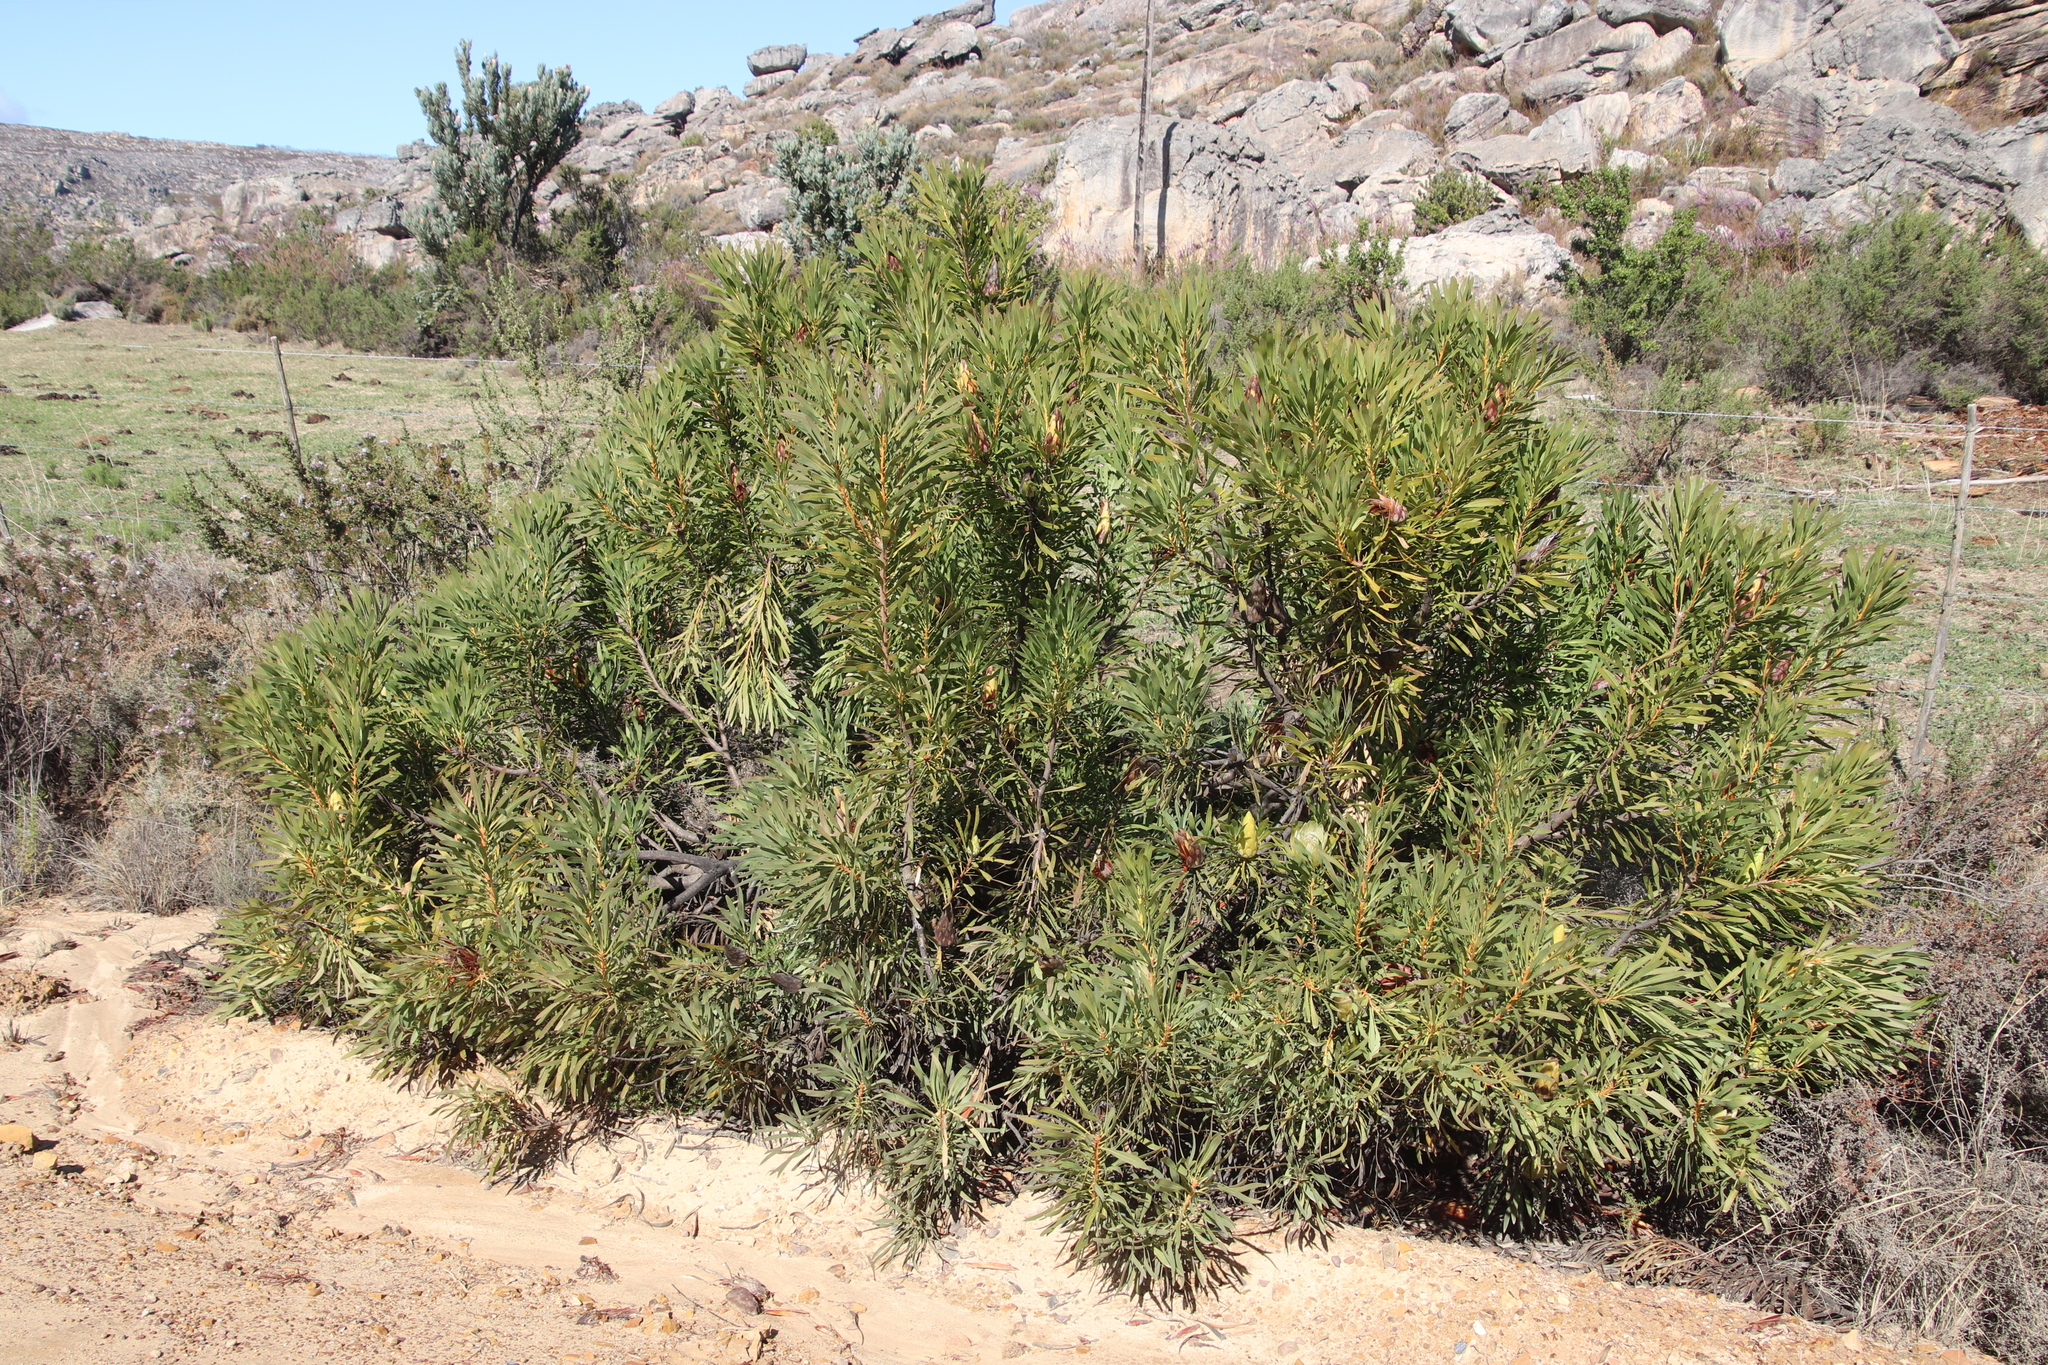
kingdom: Plantae
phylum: Tracheophyta
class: Magnoliopsida
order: Proteales
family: Proteaceae
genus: Protea
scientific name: Protea repens
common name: Sugarbush
